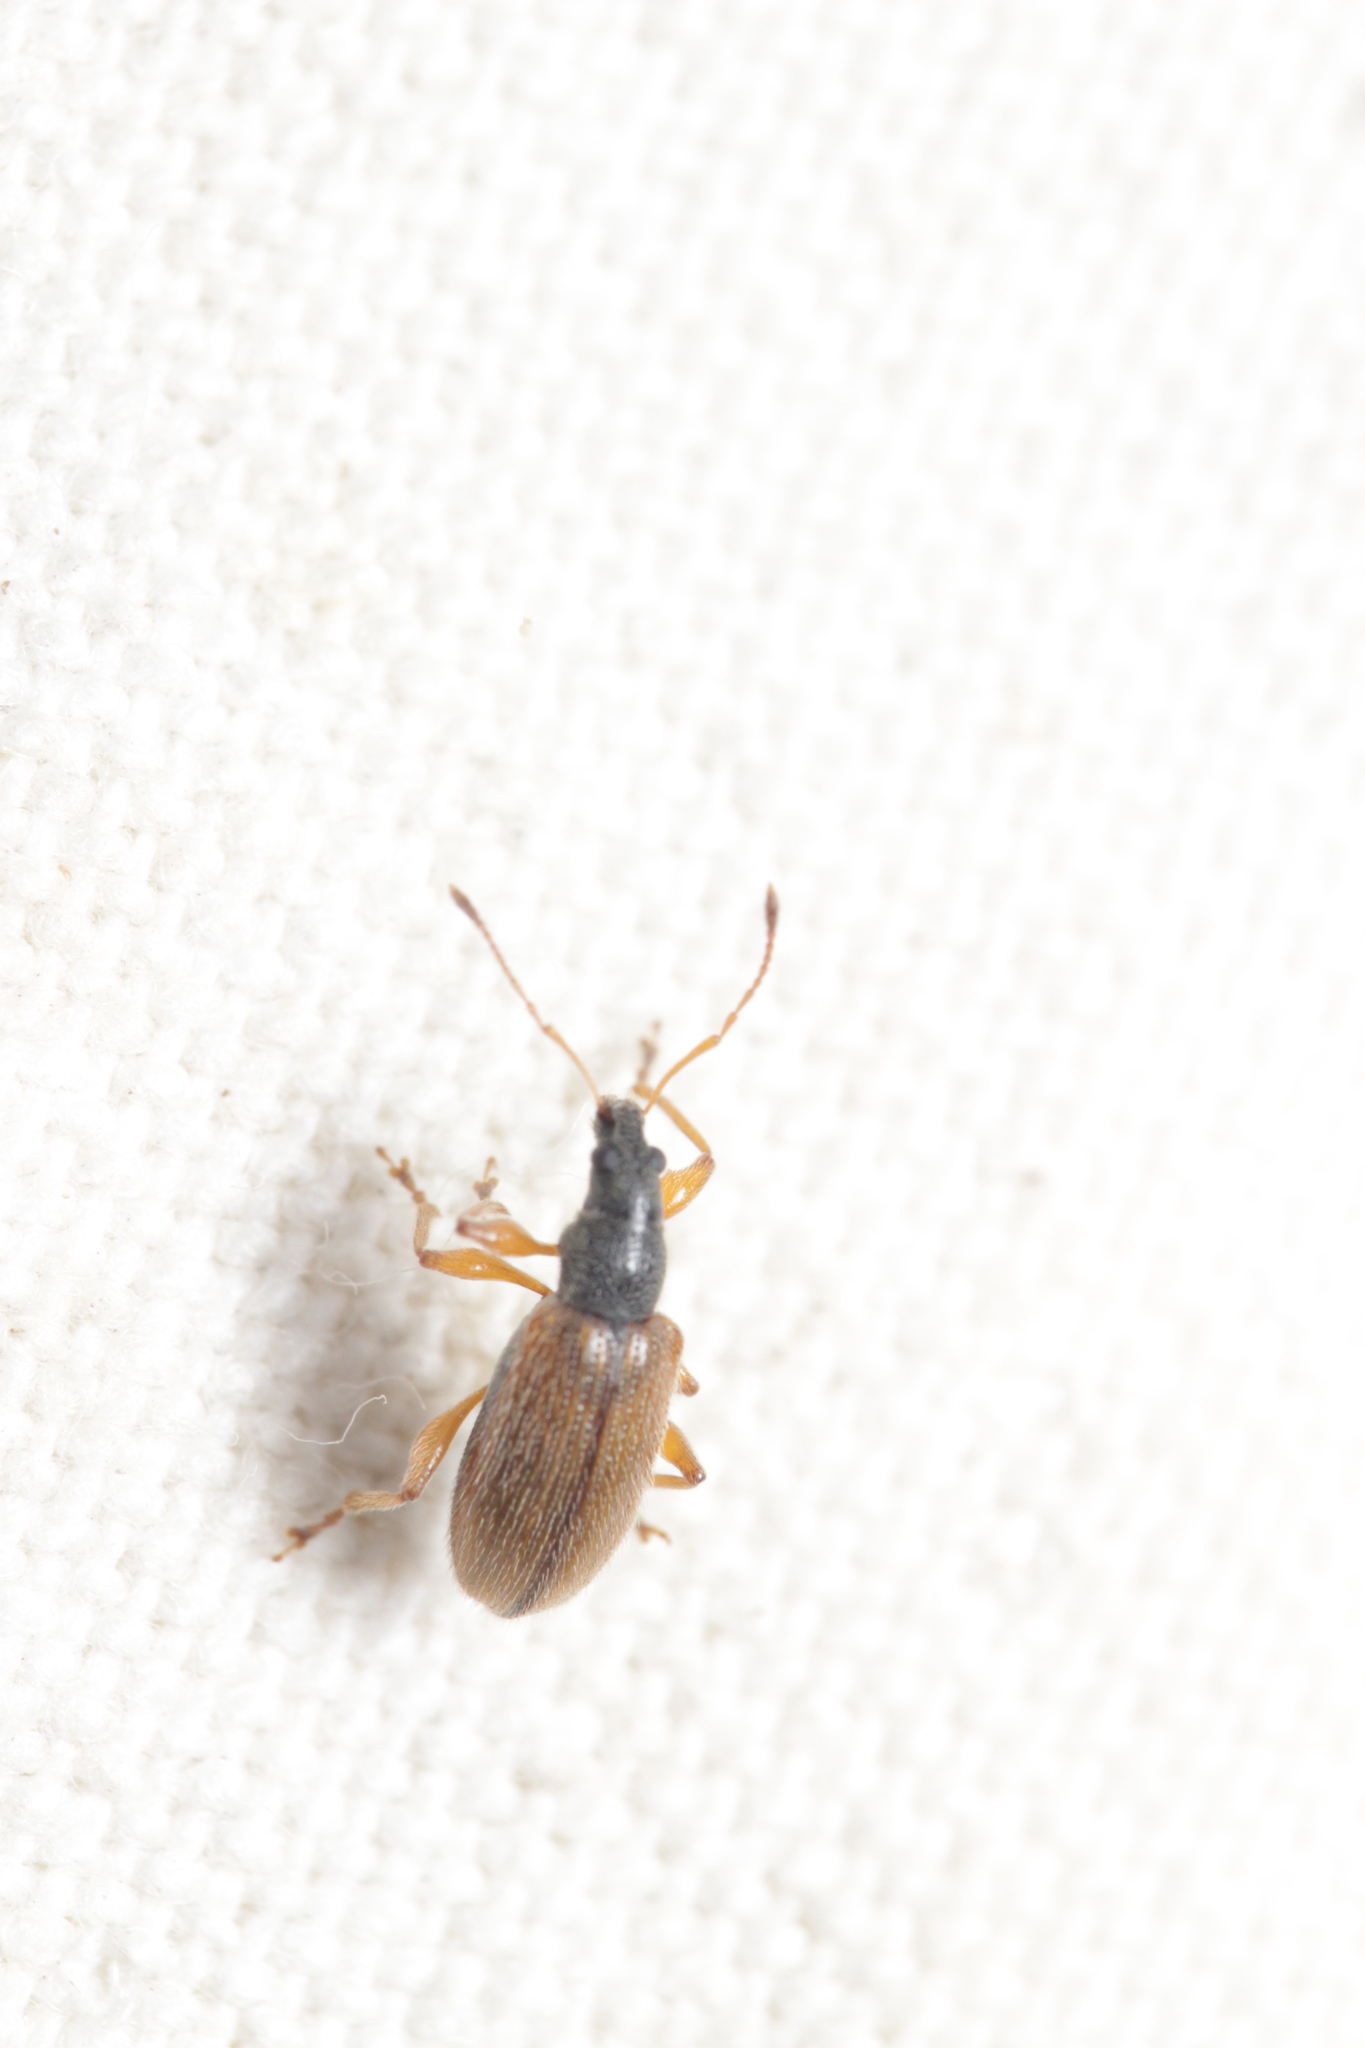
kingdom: Animalia
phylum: Arthropoda
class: Insecta
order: Coleoptera
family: Curculionidae
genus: Phyllobius
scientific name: Phyllobius oblongus
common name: Brown leaf weevil
